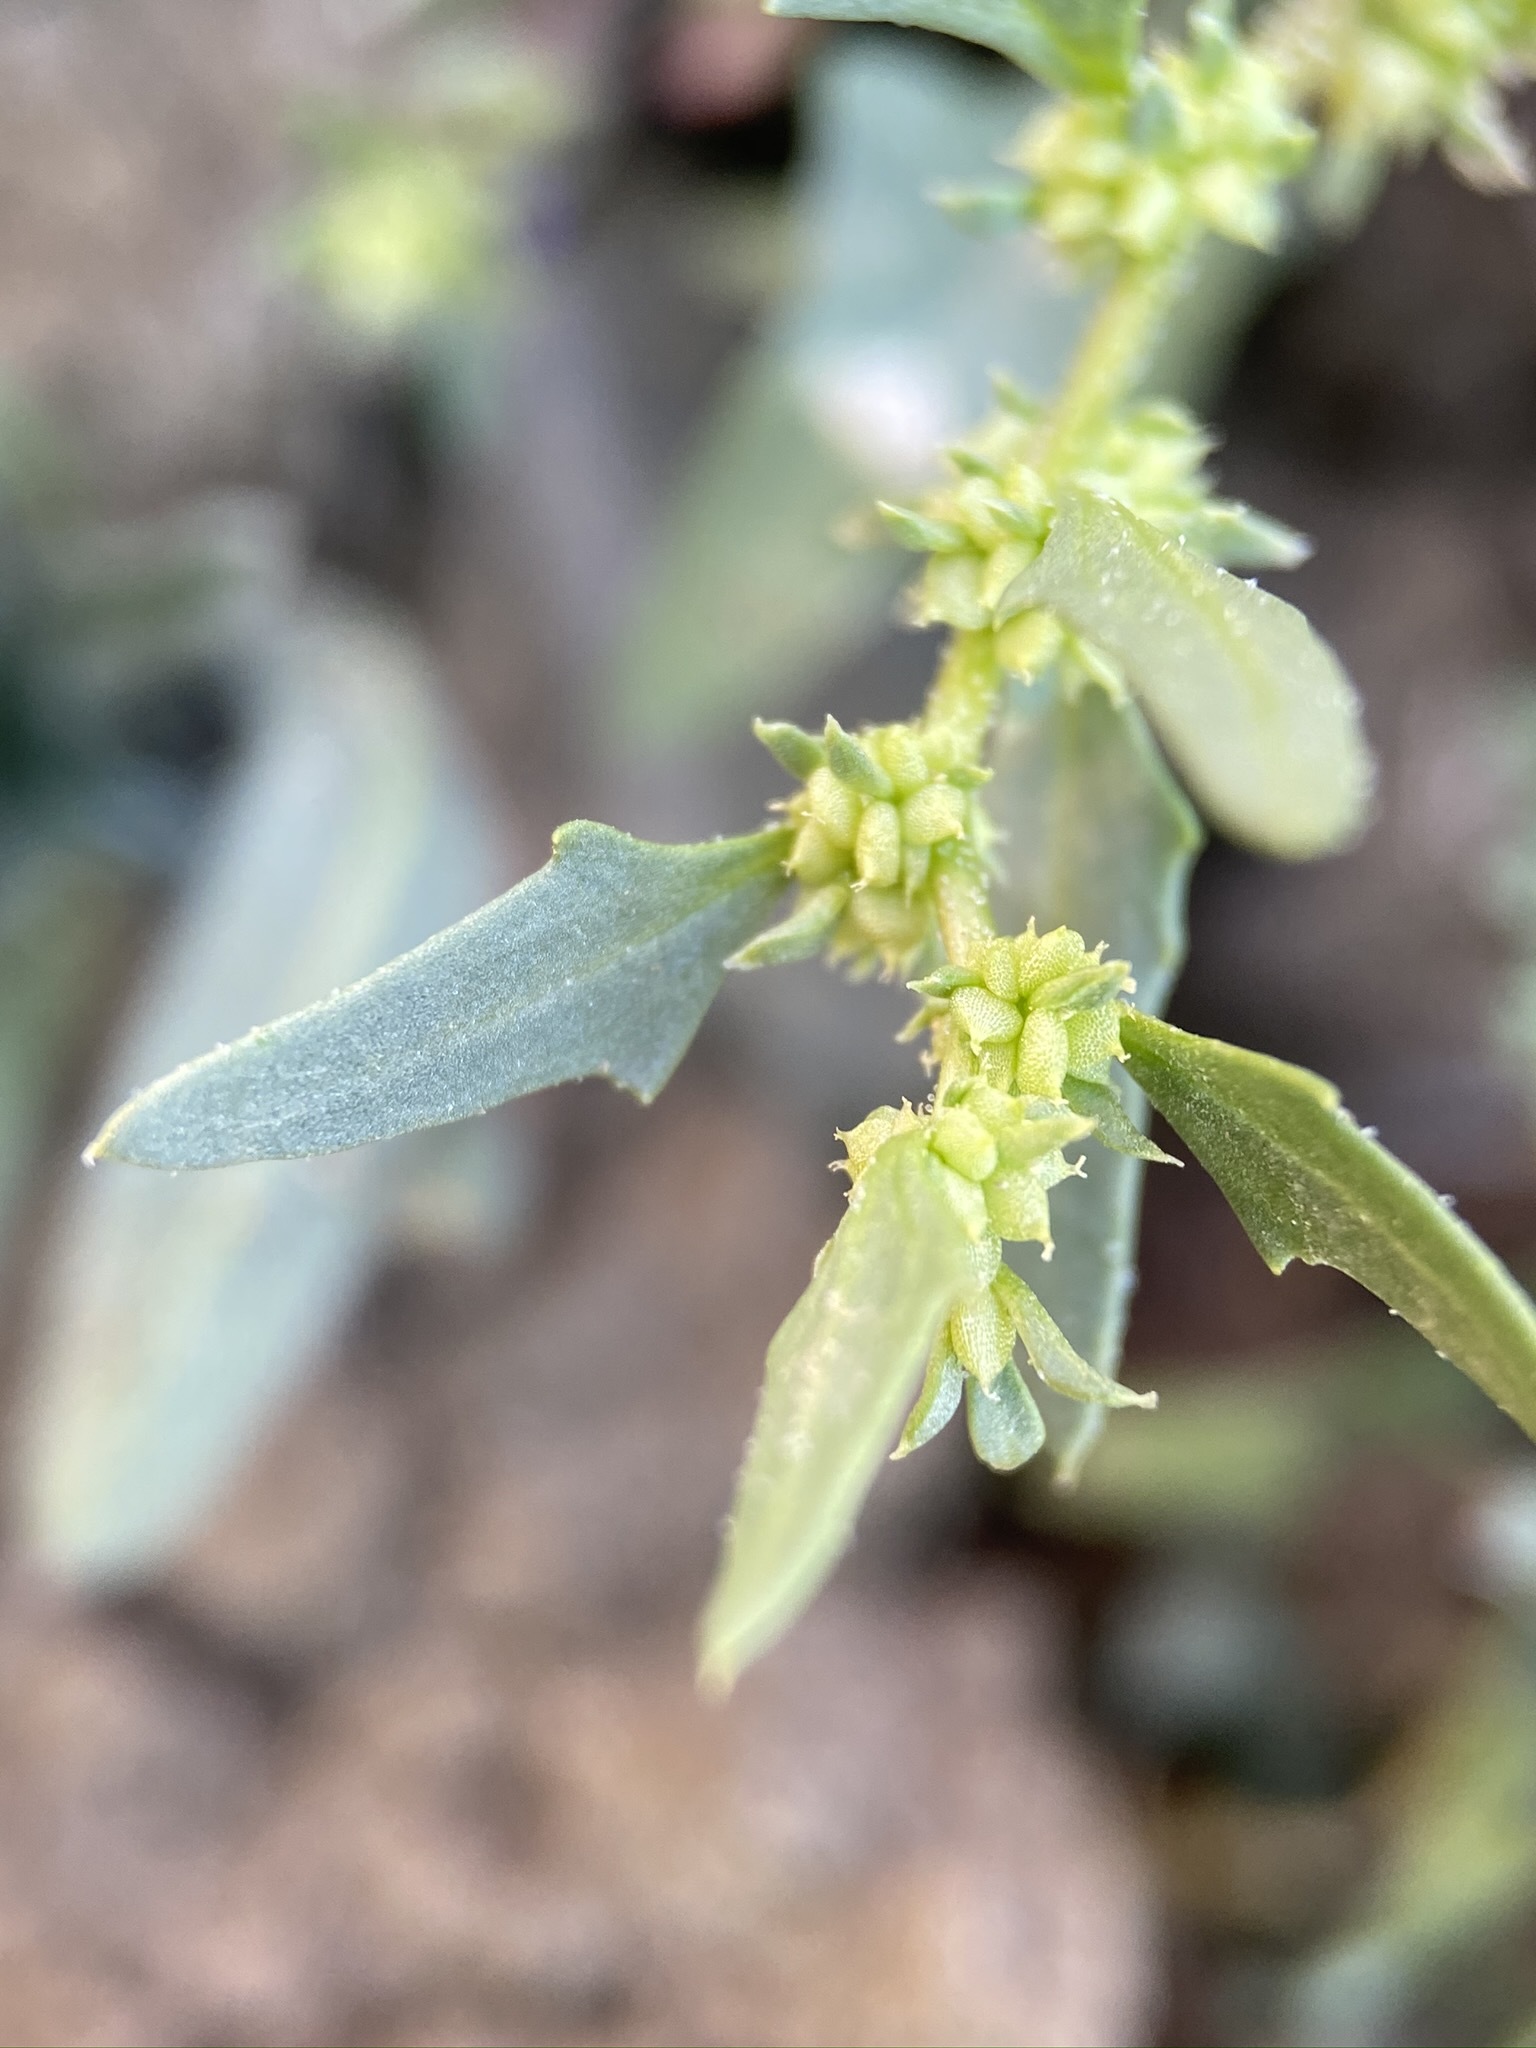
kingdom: Plantae
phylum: Tracheophyta
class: Magnoliopsida
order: Caryophyllales
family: Amaranthaceae
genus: Blitum
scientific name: Blitum nuttallianum
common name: Poverty-weed
